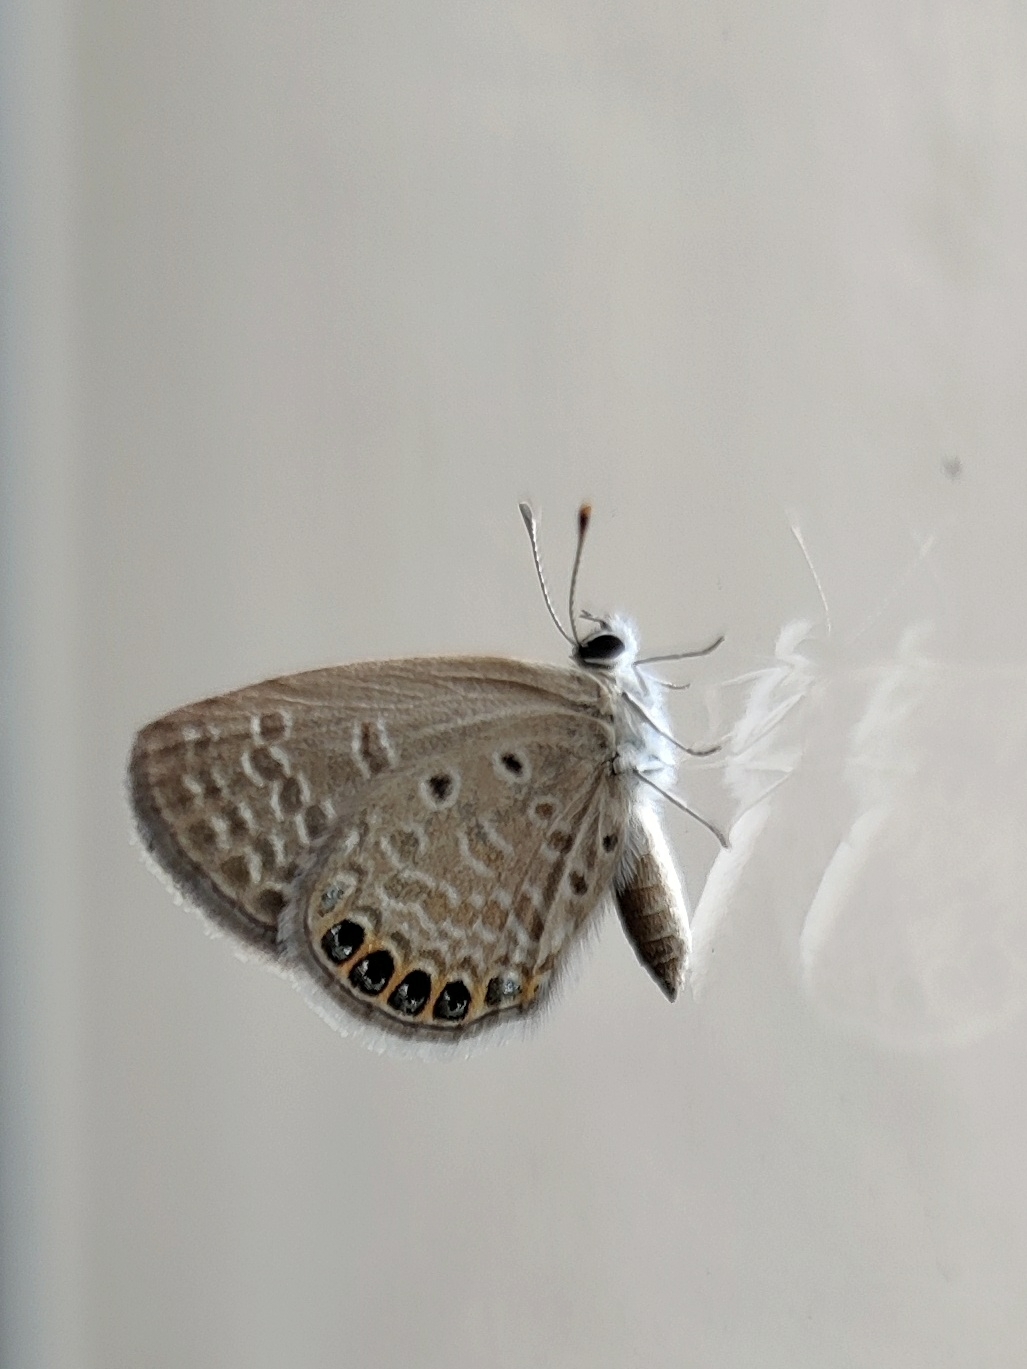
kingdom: Animalia
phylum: Arthropoda
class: Insecta
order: Lepidoptera
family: Lycaenidae
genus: Freyeria
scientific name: Freyeria putli
